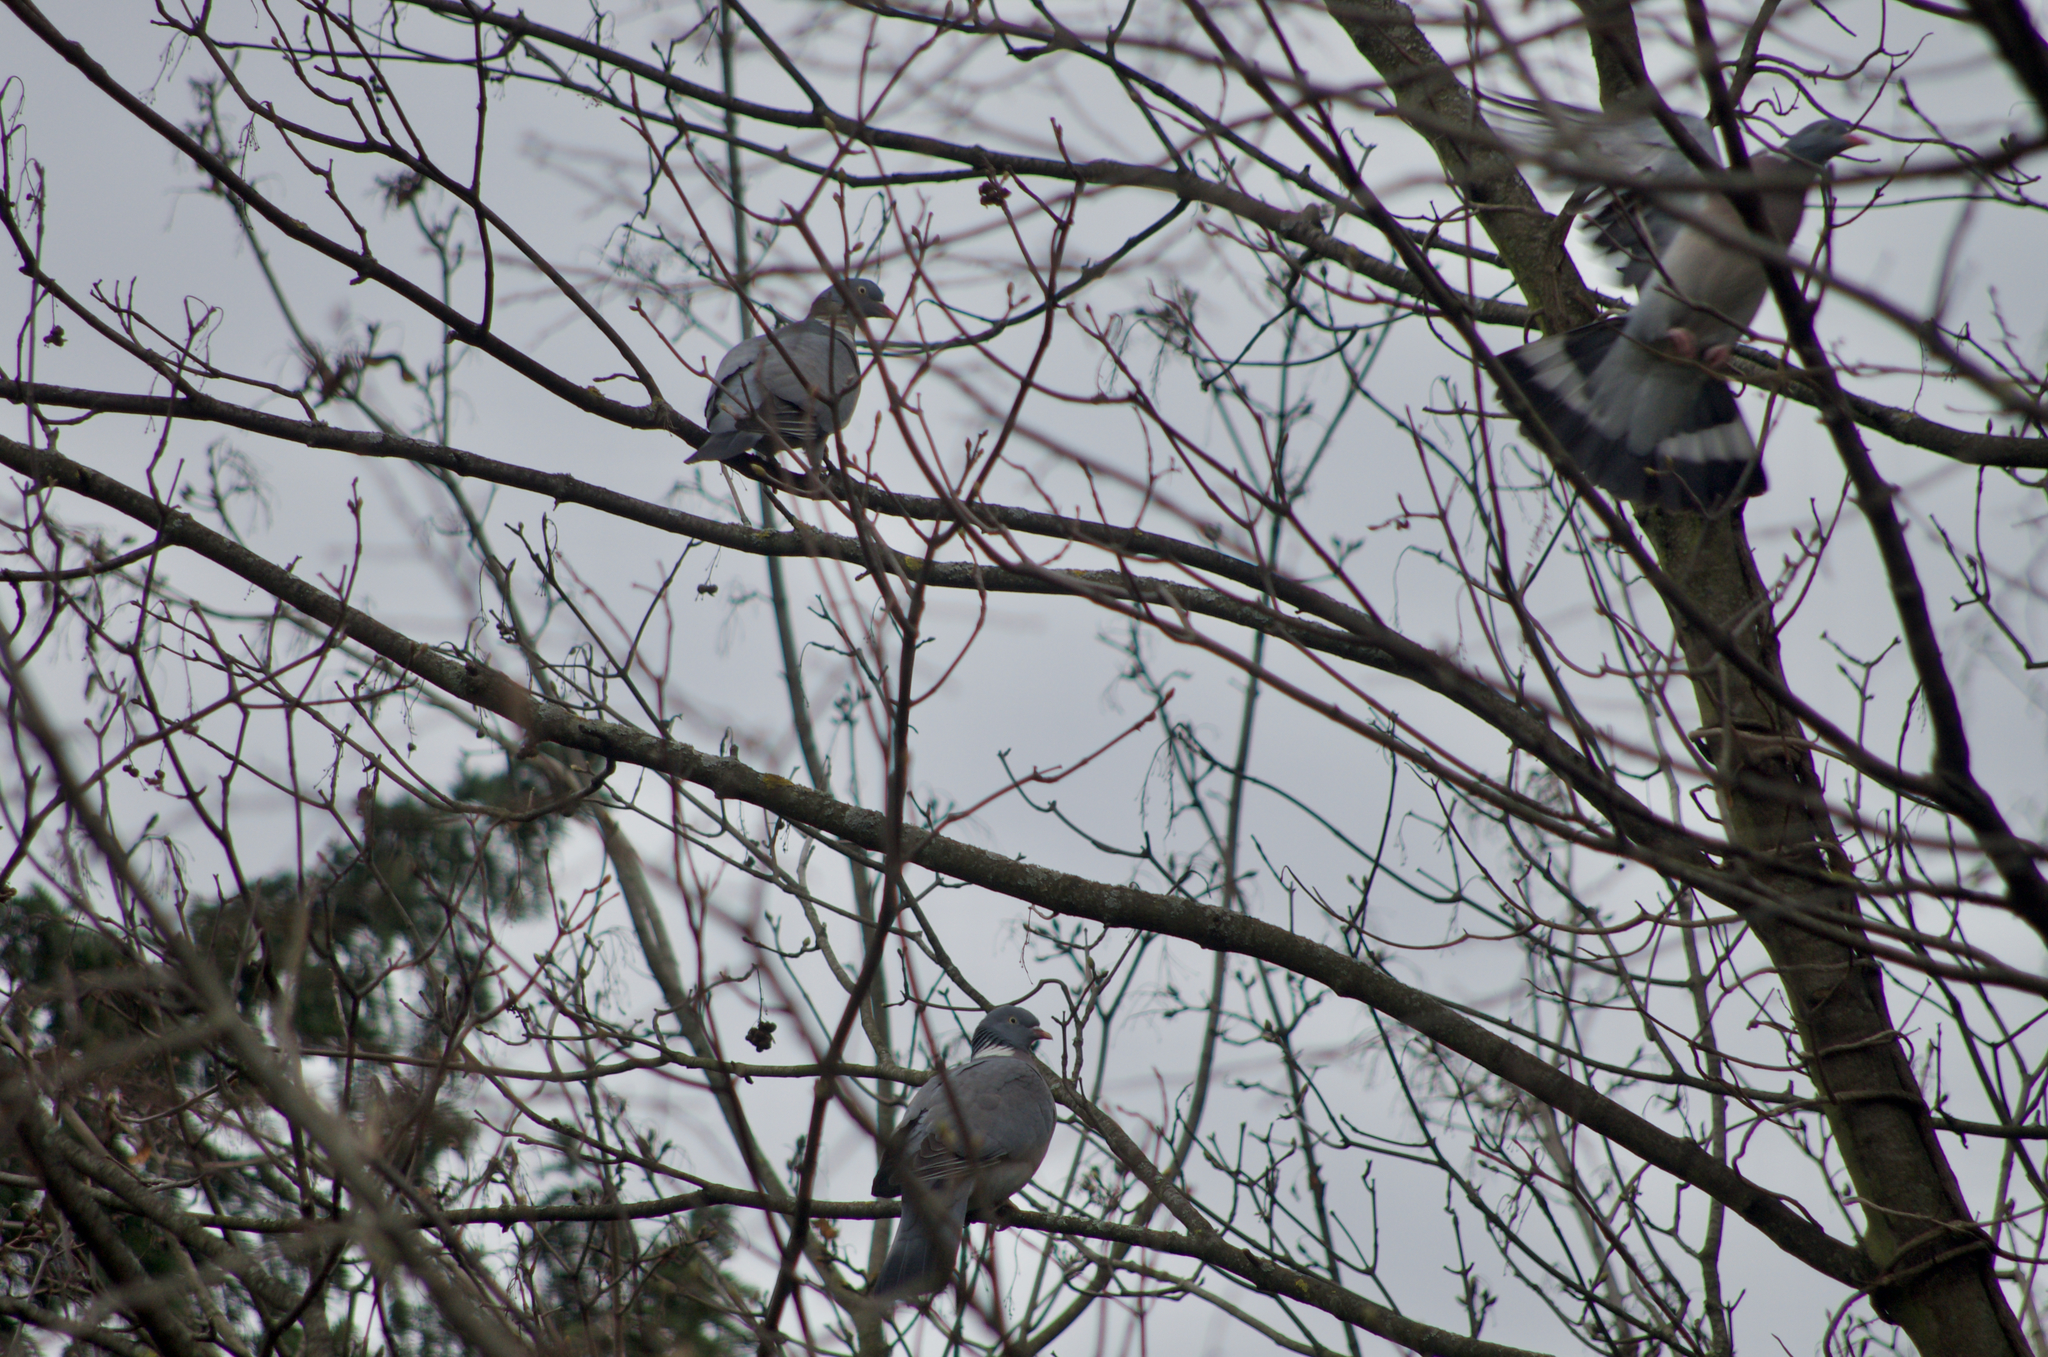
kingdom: Animalia
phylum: Chordata
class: Aves
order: Columbiformes
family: Columbidae
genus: Columba
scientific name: Columba palumbus
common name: Common wood pigeon
